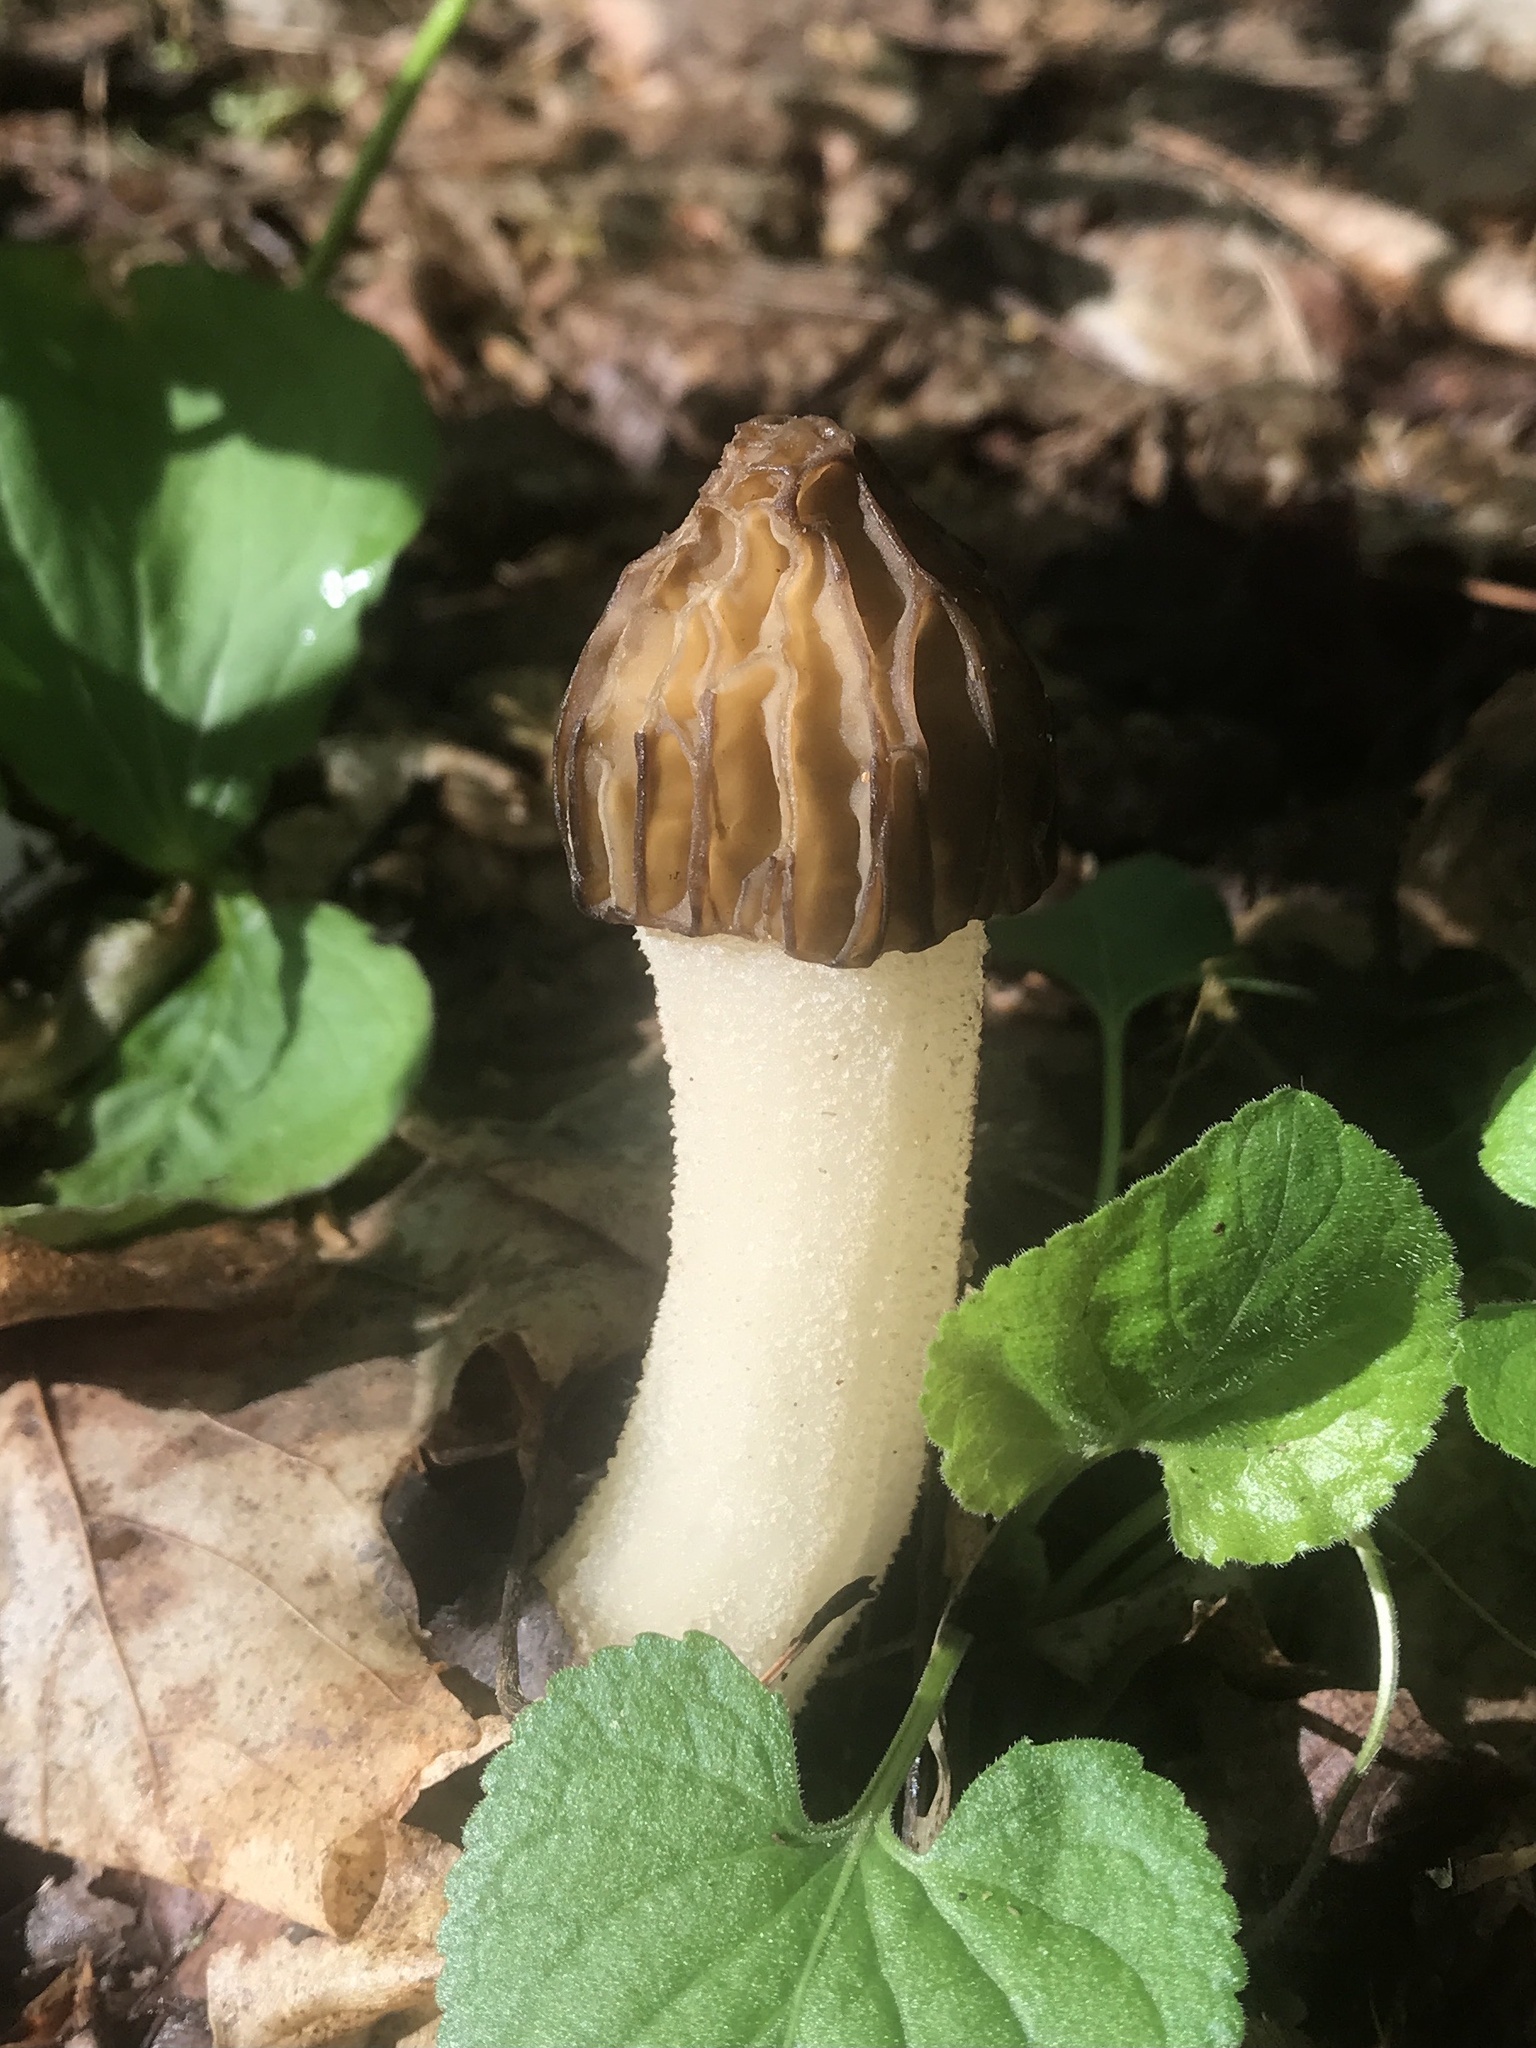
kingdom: Fungi
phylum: Ascomycota
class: Pezizomycetes
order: Pezizales
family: Morchellaceae
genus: Morchella
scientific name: Morchella punctipes
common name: Half-free morel
